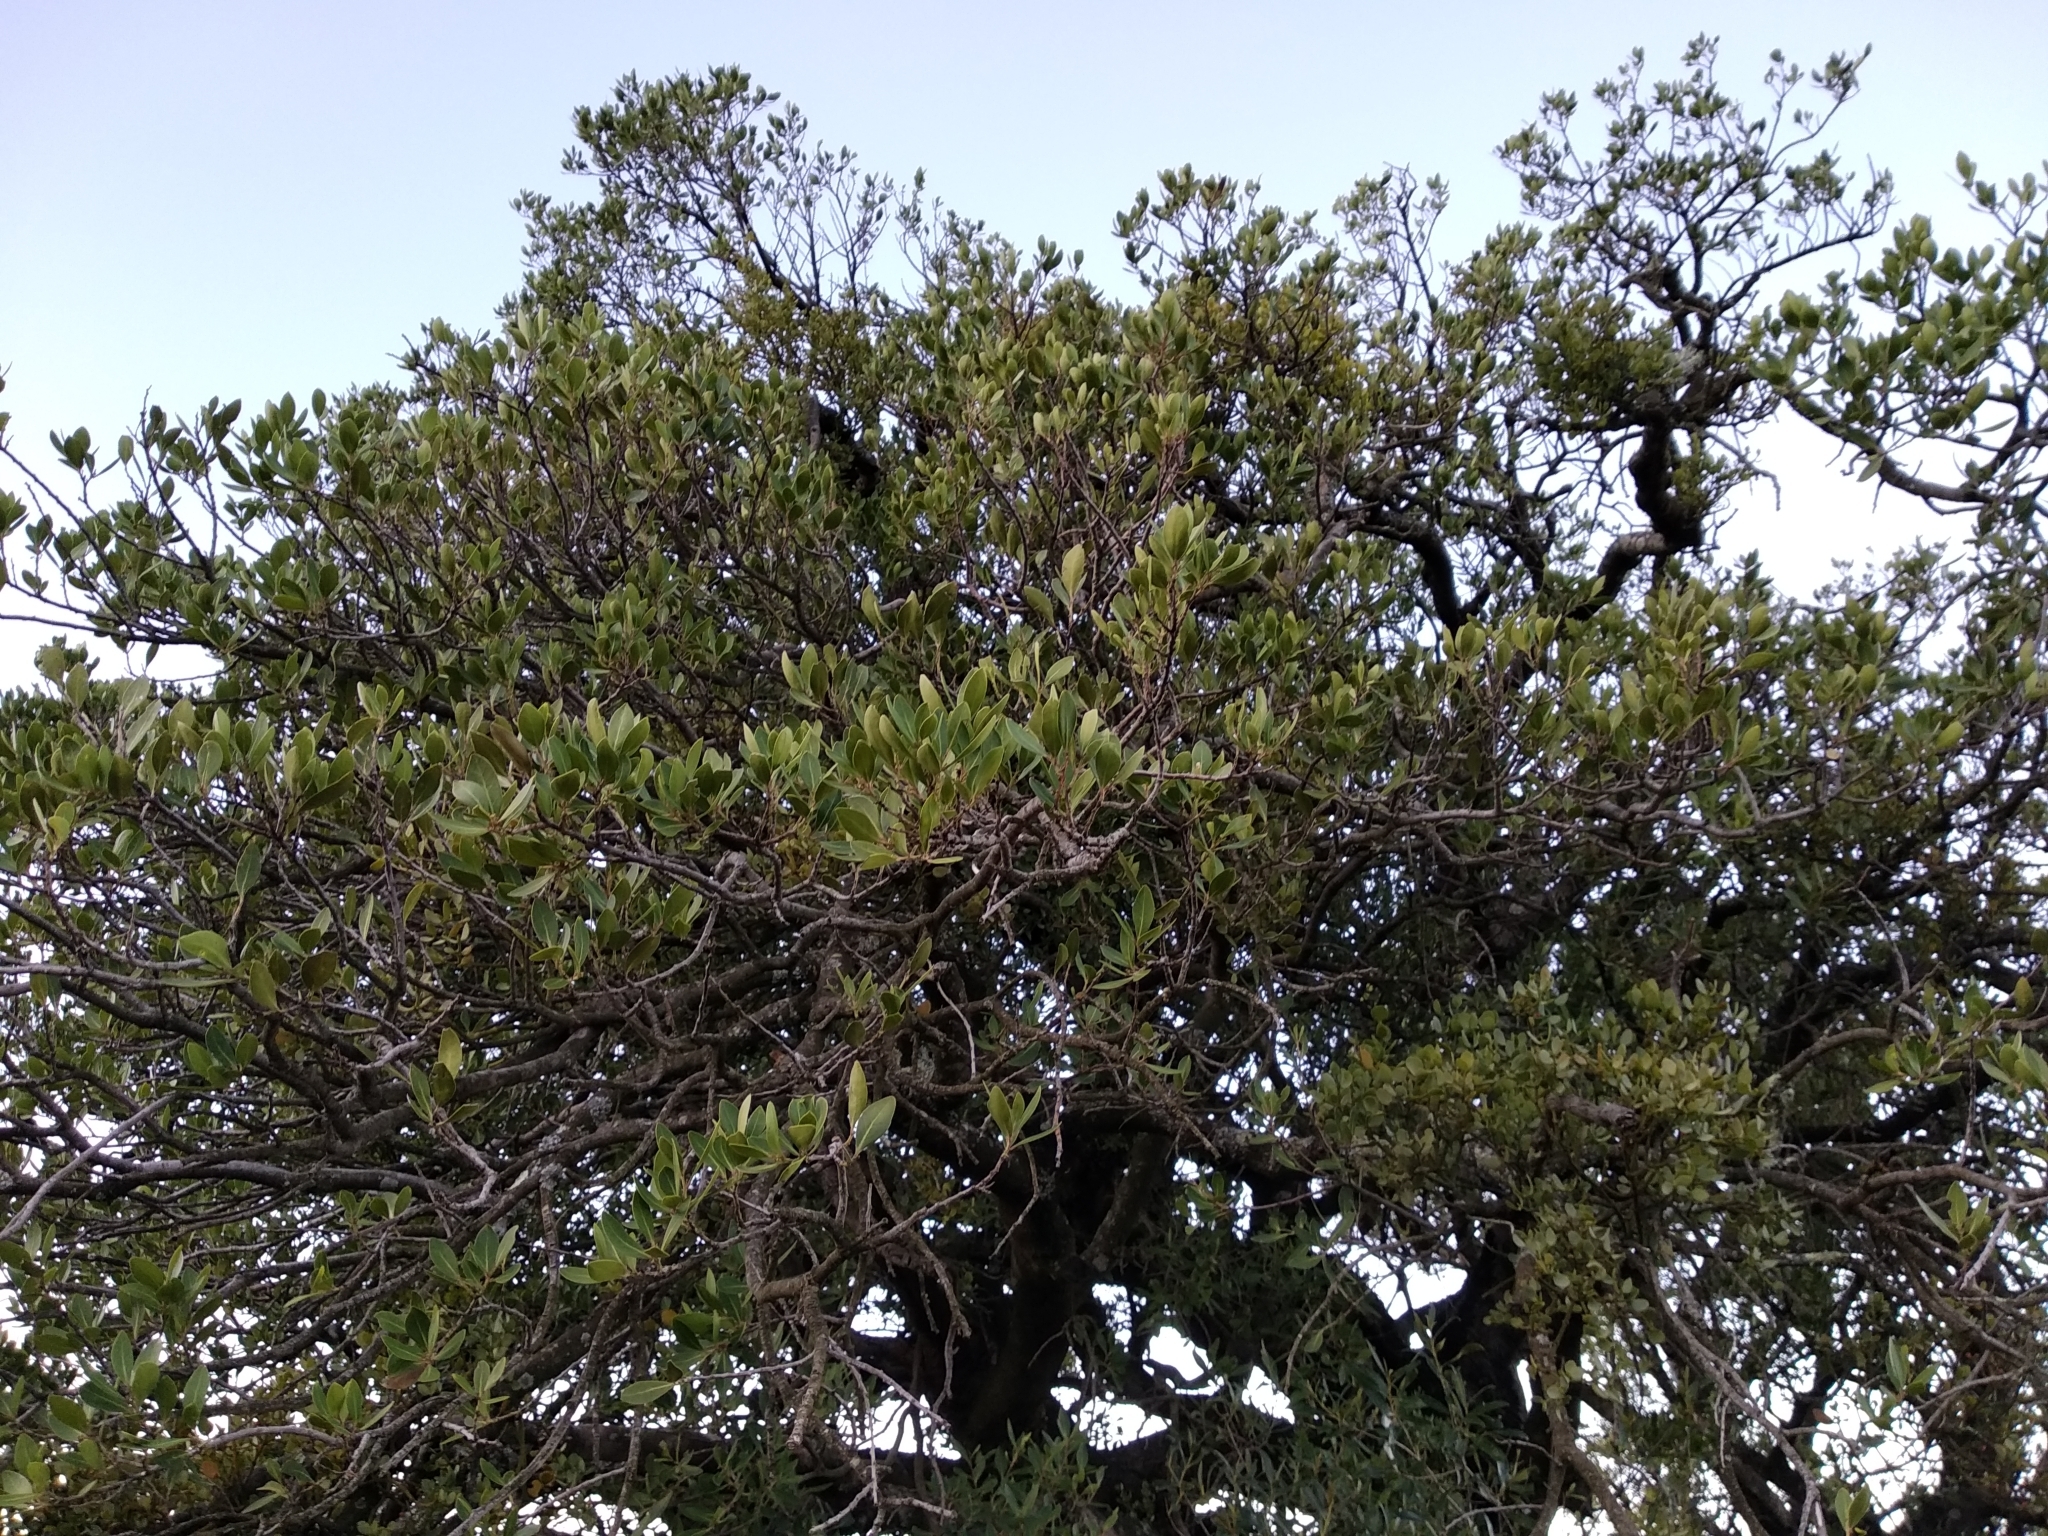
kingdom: Plantae
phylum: Tracheophyta
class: Magnoliopsida
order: Celastrales
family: Celastraceae
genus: Gymnosporia
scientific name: Gymnosporia laurina
